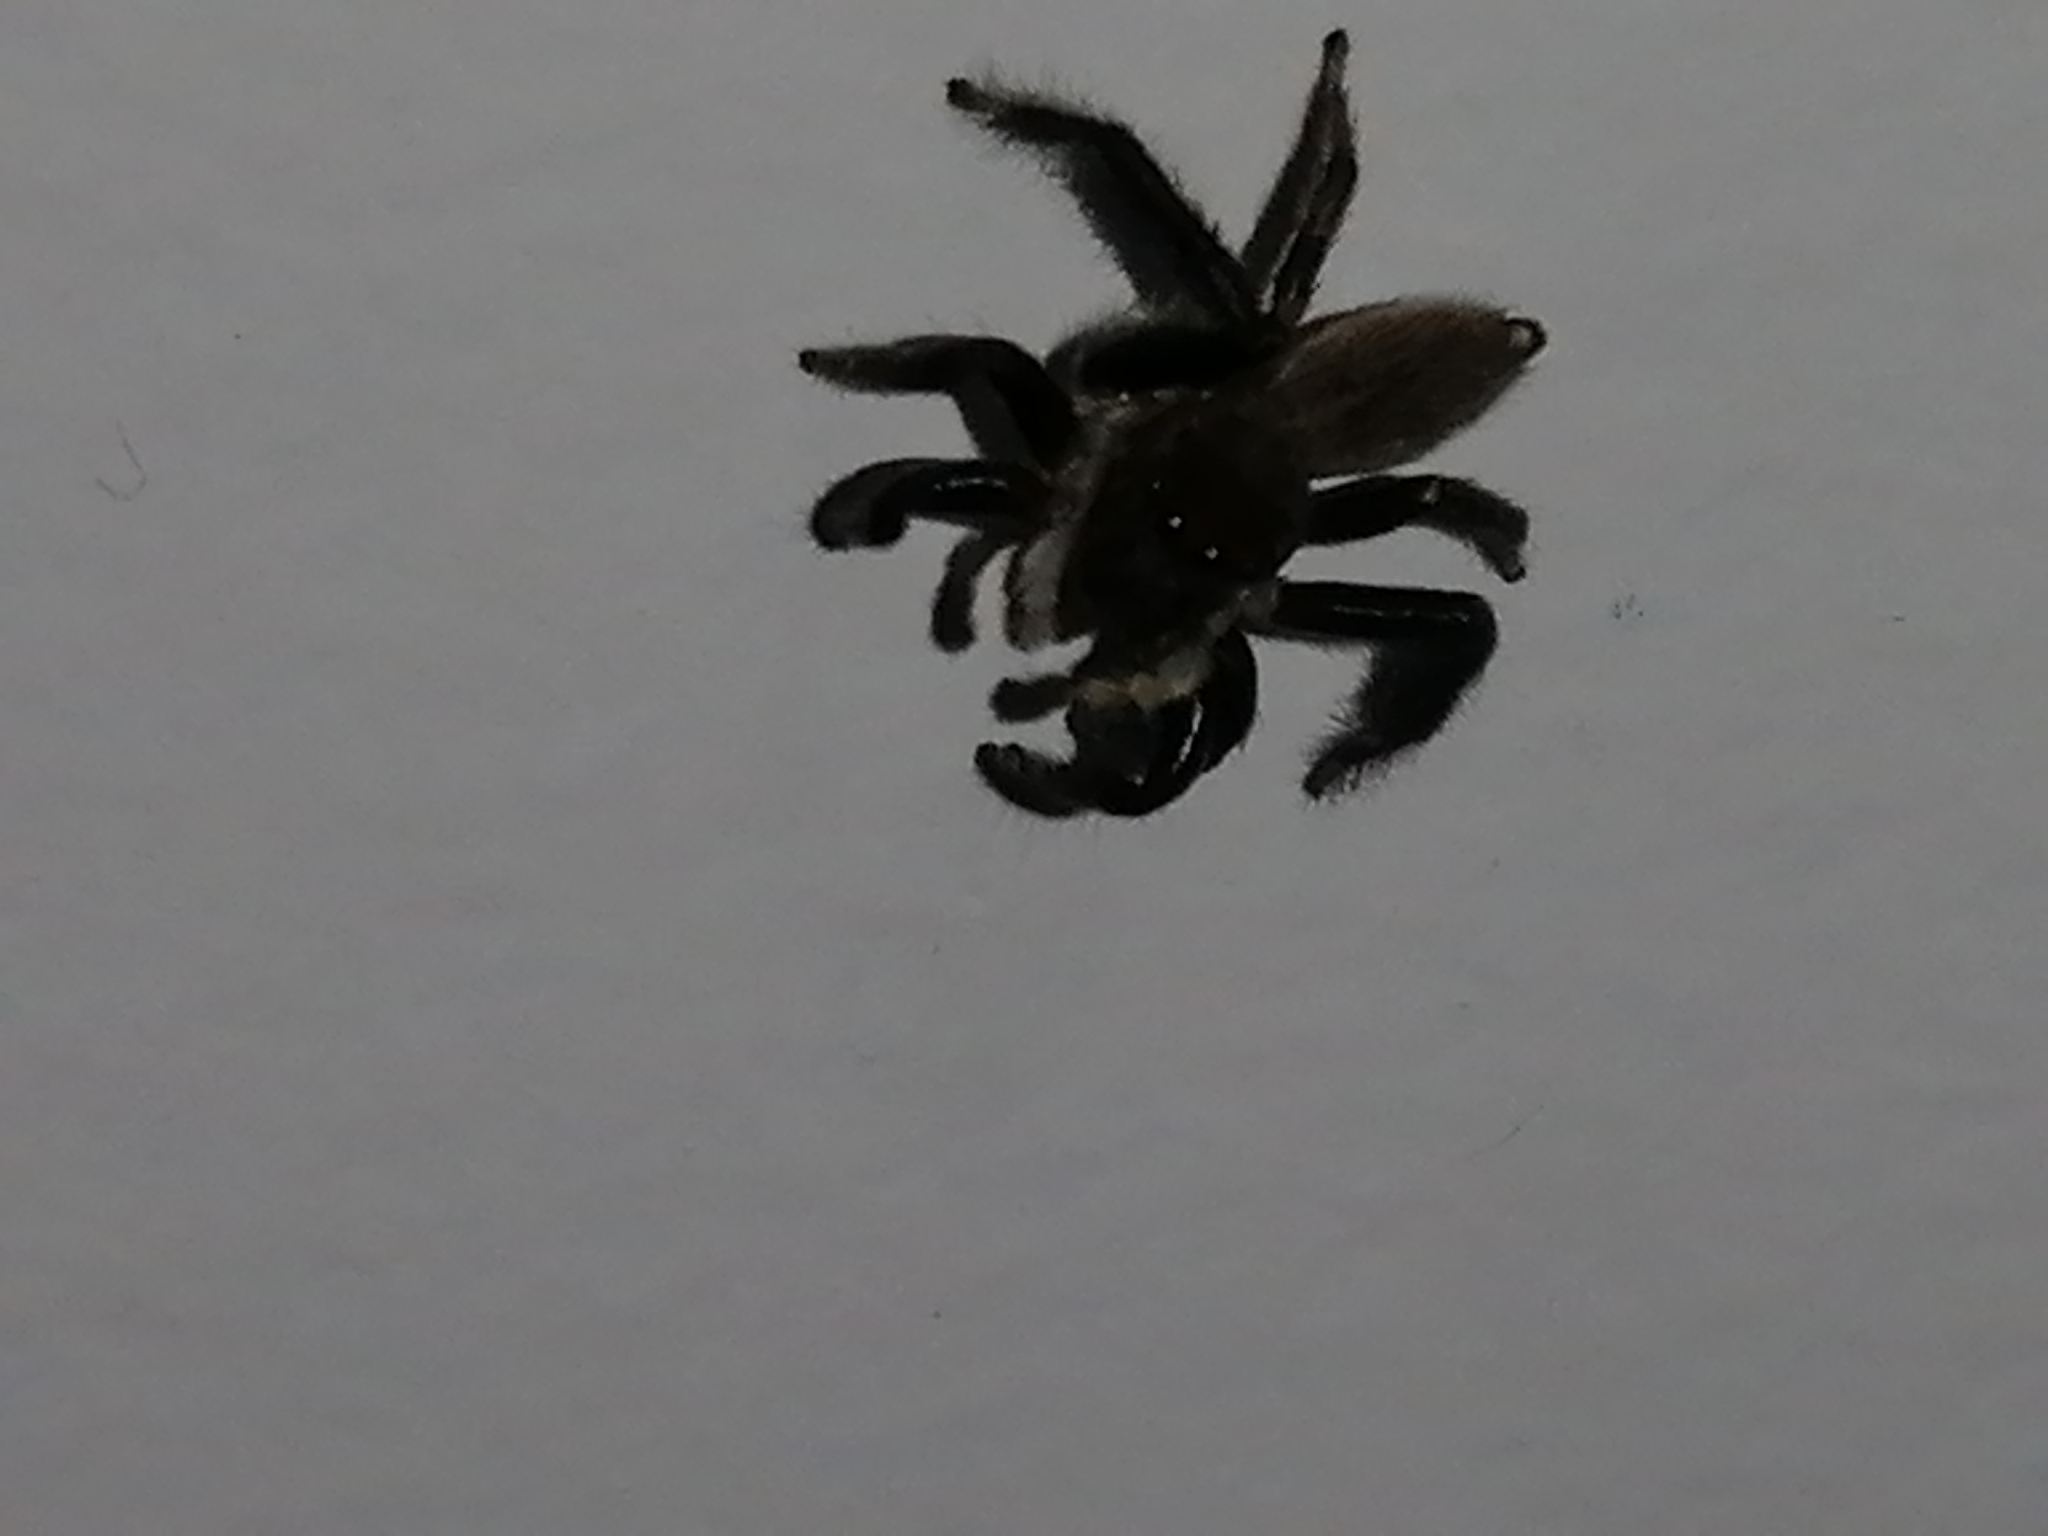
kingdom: Animalia
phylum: Arthropoda
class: Arachnida
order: Araneae
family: Salticidae
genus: Maratus
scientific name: Maratus griseus
